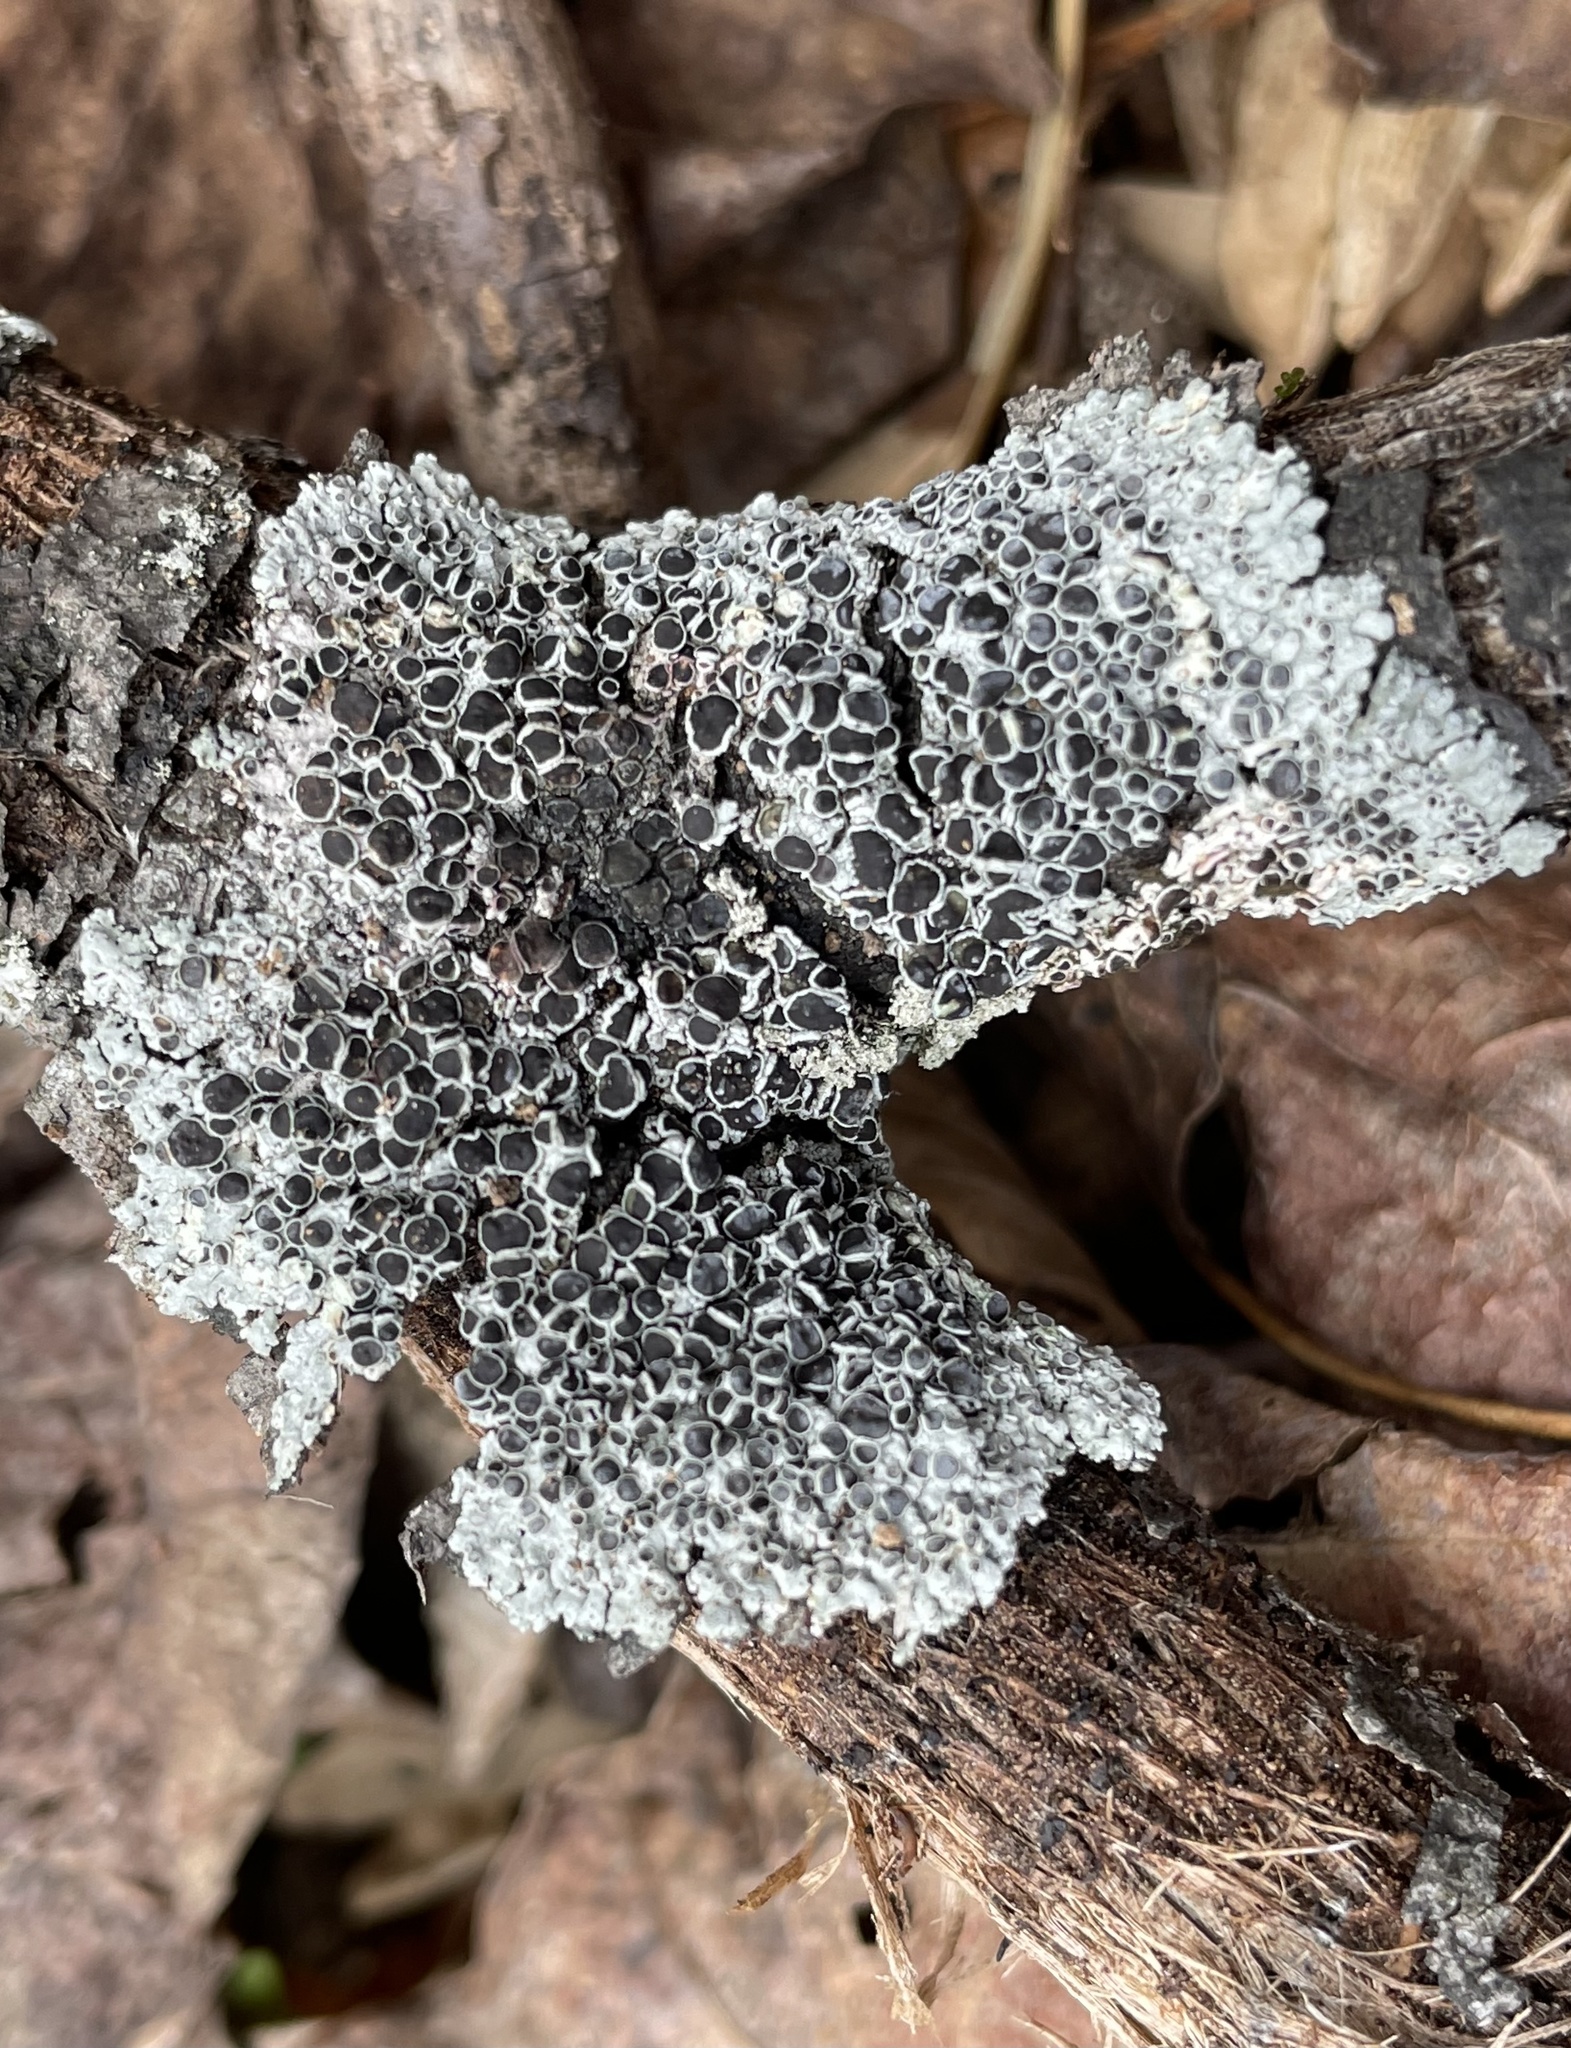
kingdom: Fungi
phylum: Ascomycota
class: Lecanoromycetes
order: Caliciales
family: Physciaceae
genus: Physcia
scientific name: Physcia aipolia
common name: Hoary rosette lichen
